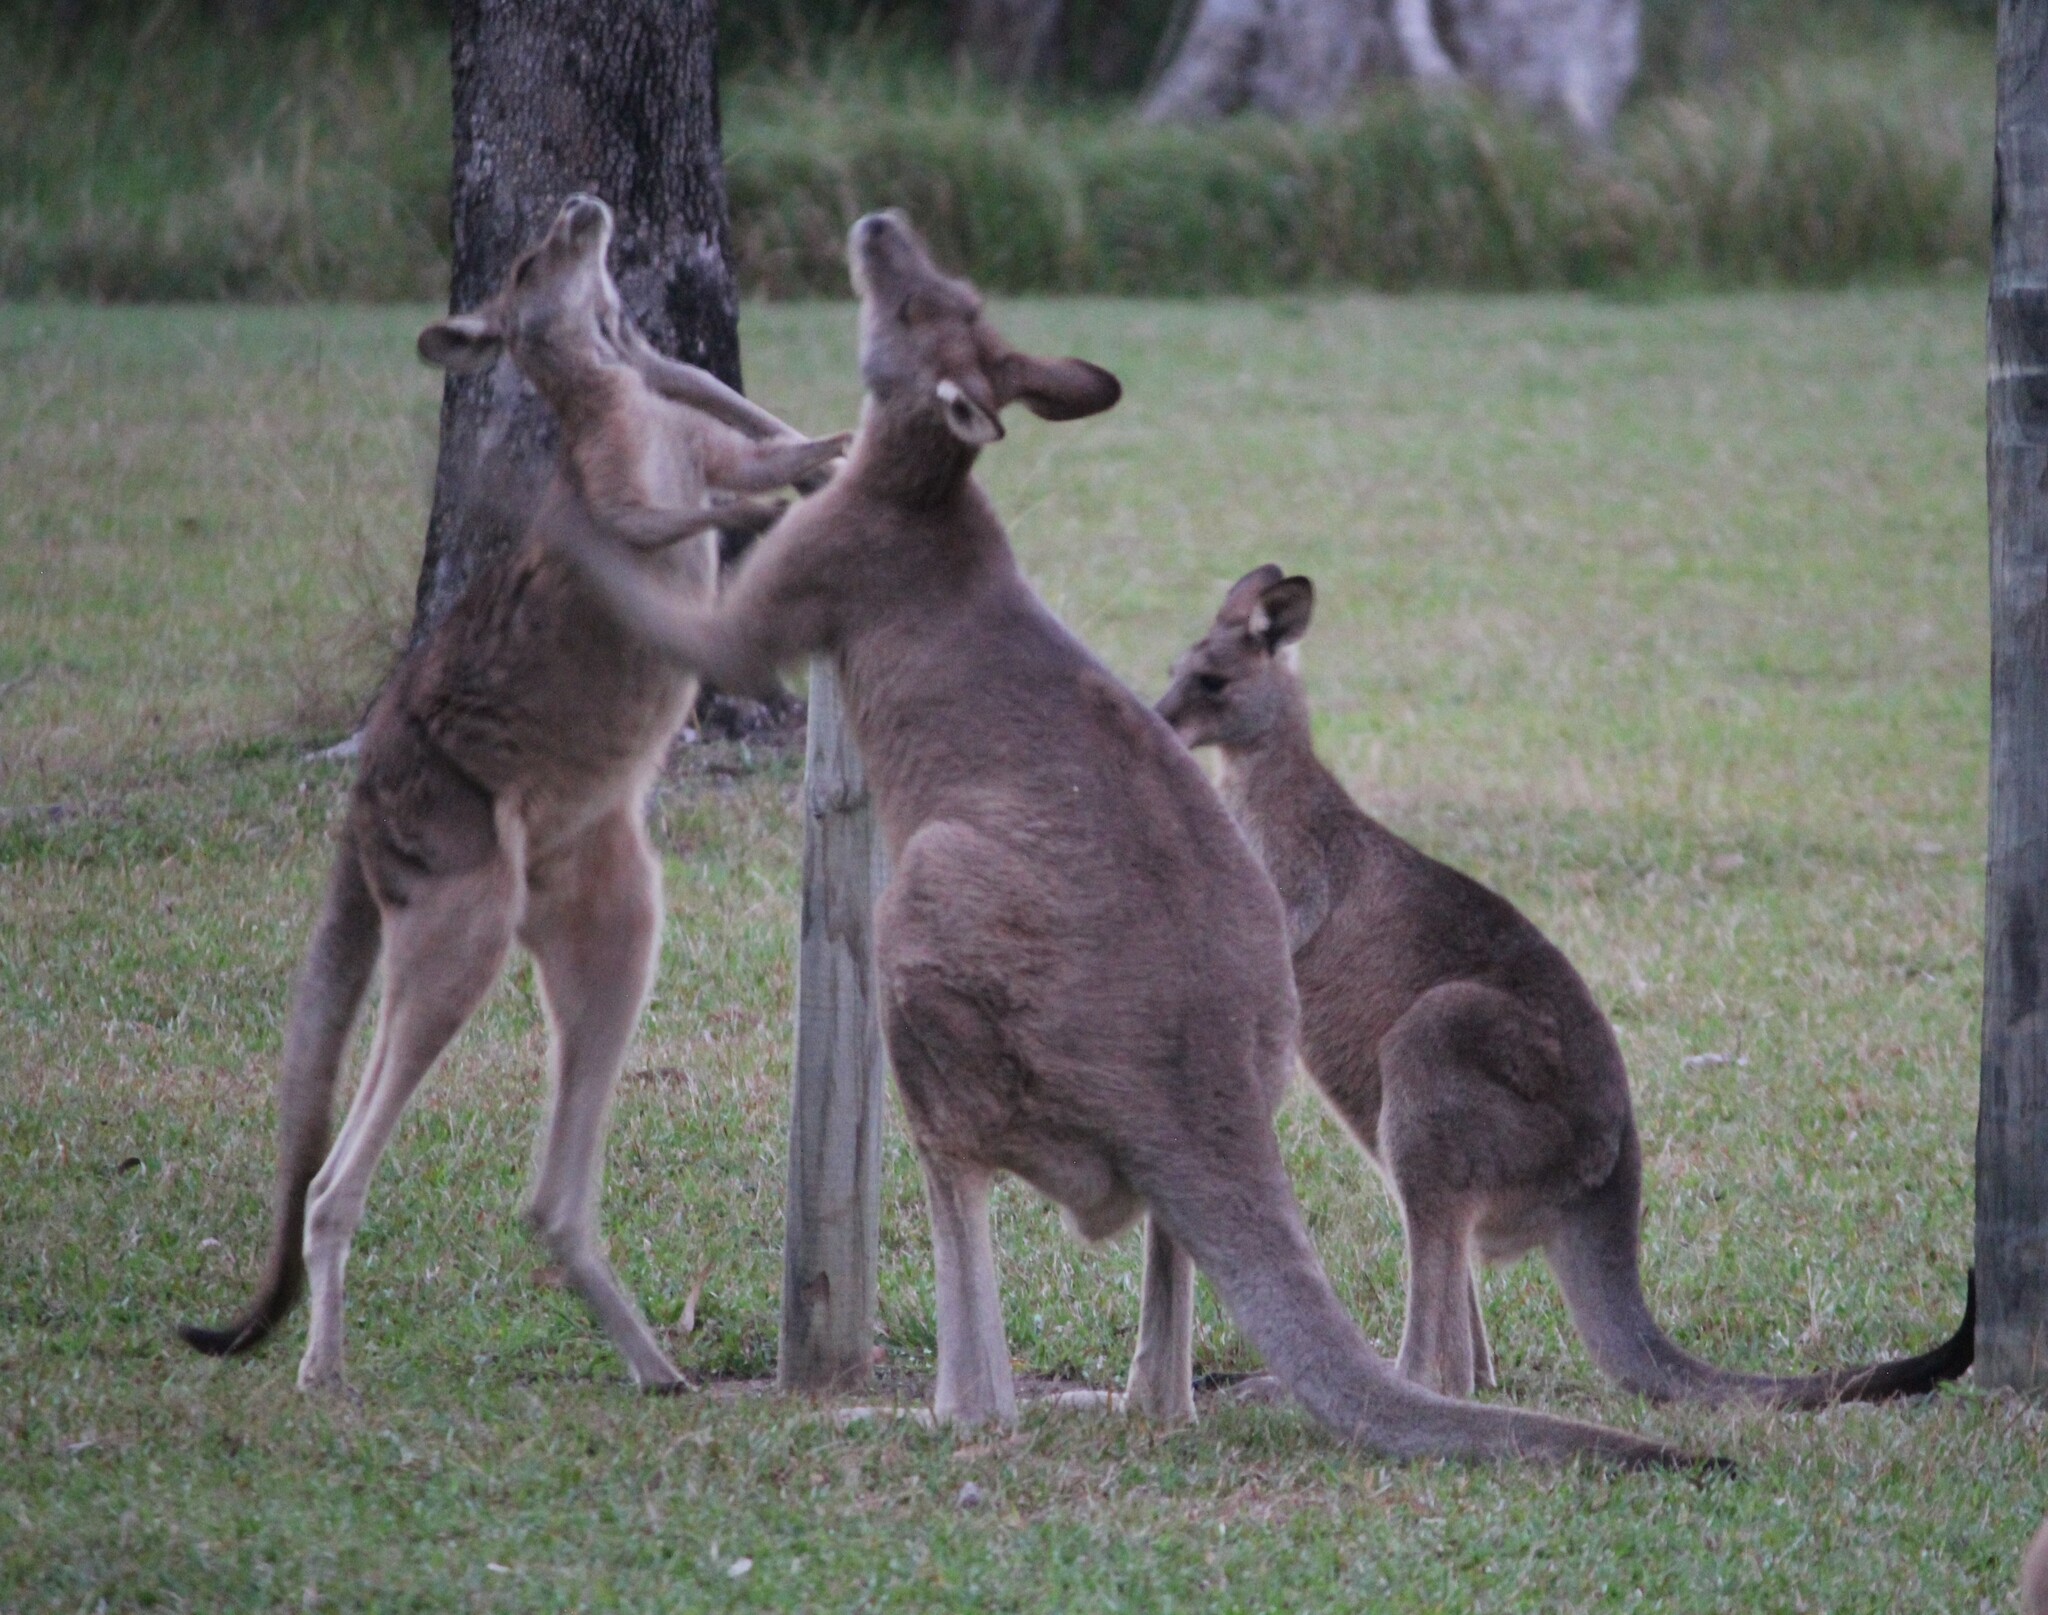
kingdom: Animalia
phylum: Chordata
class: Mammalia
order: Diprotodontia
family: Macropodidae
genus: Macropus
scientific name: Macropus giganteus
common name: Eastern grey kangaroo
